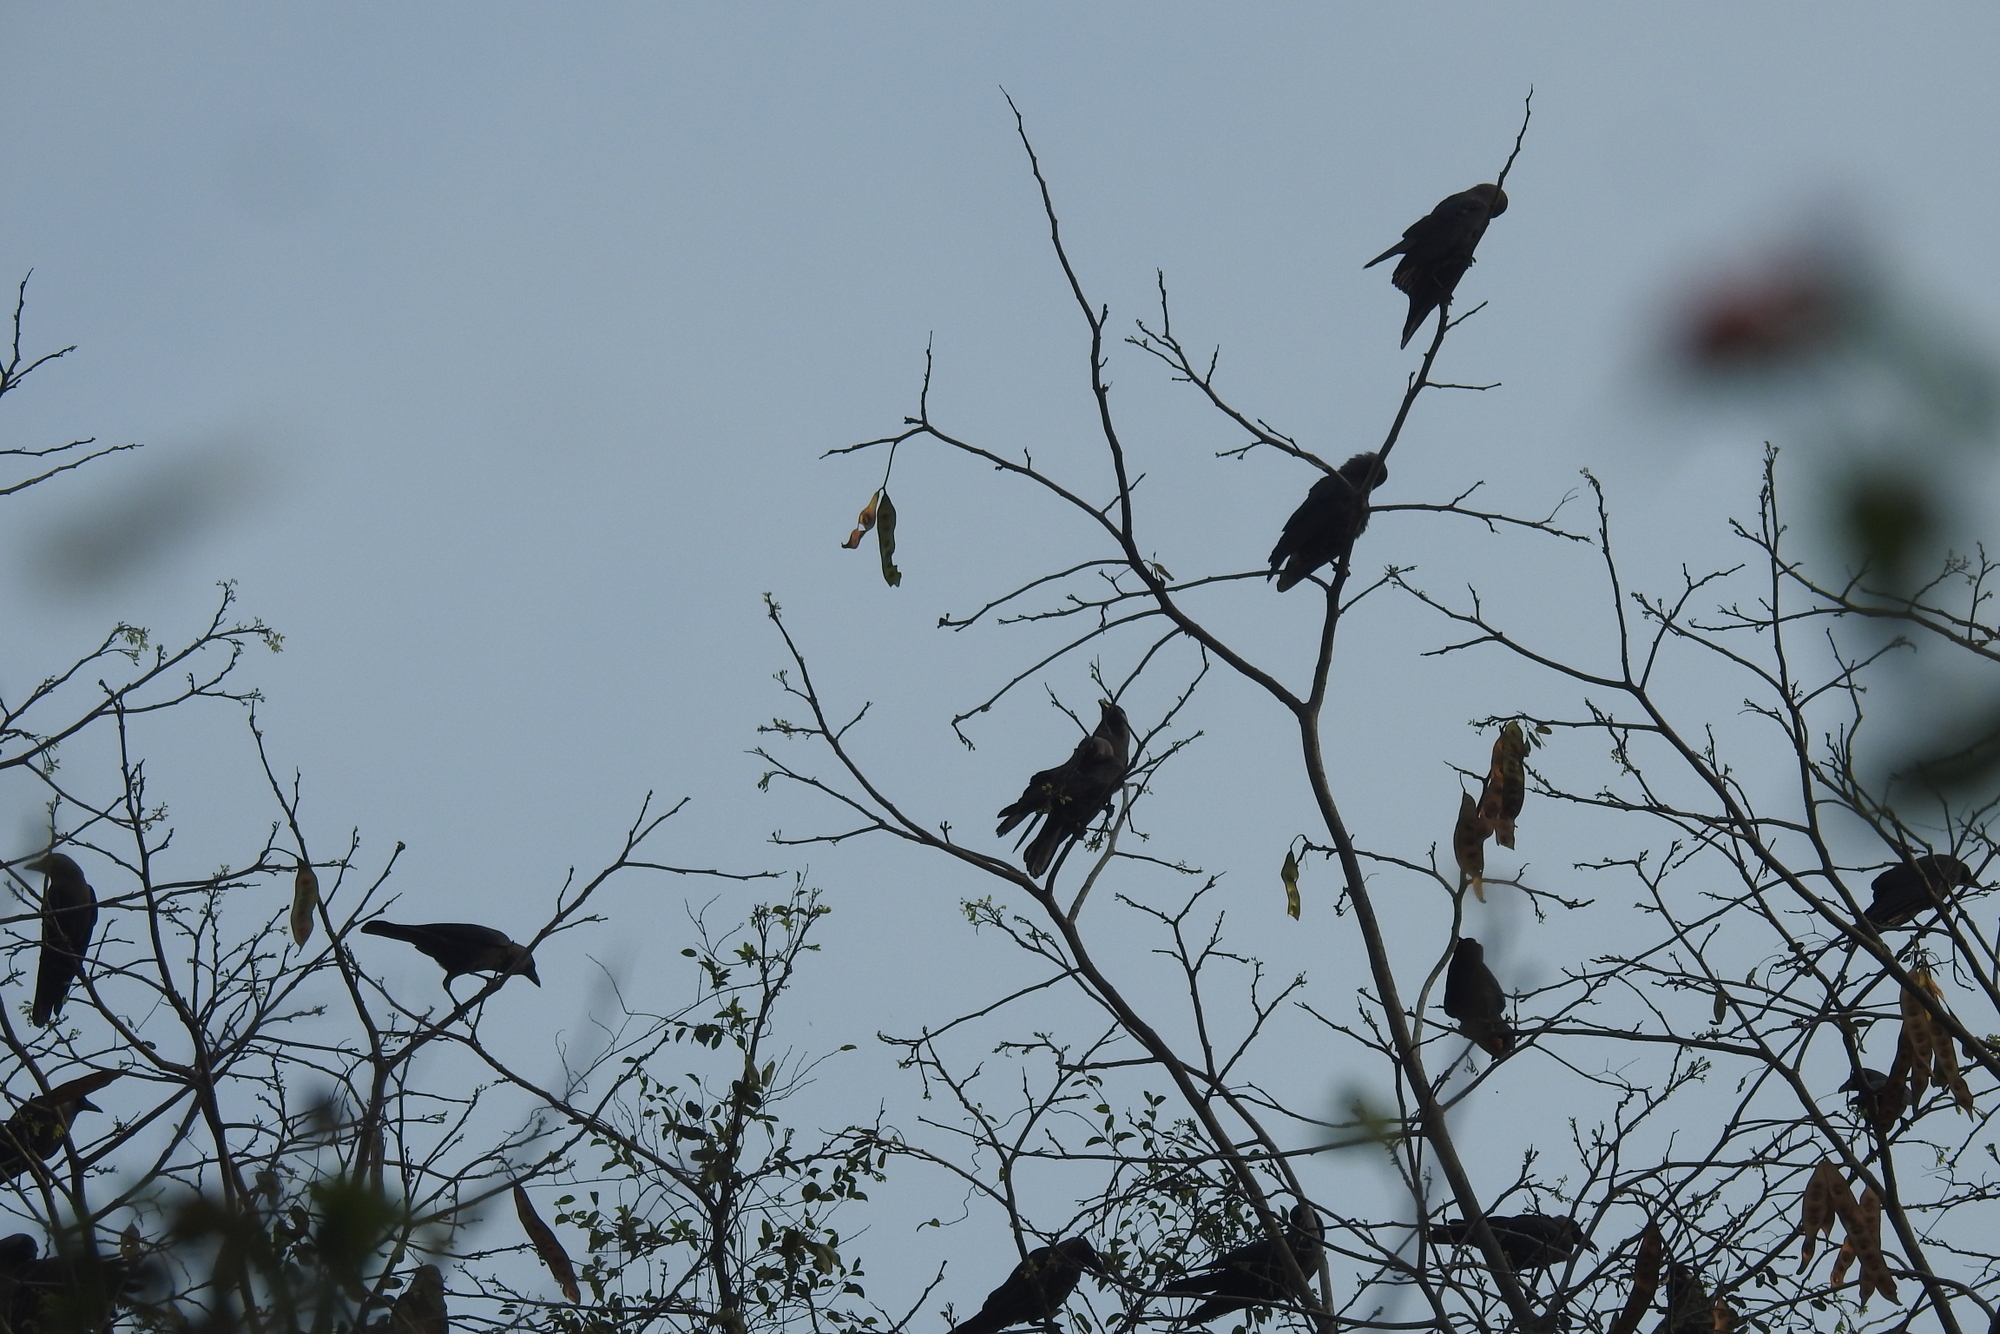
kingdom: Animalia
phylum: Chordata
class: Aves
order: Passeriformes
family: Corvidae
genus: Corvus
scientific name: Corvus splendens
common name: House crow
